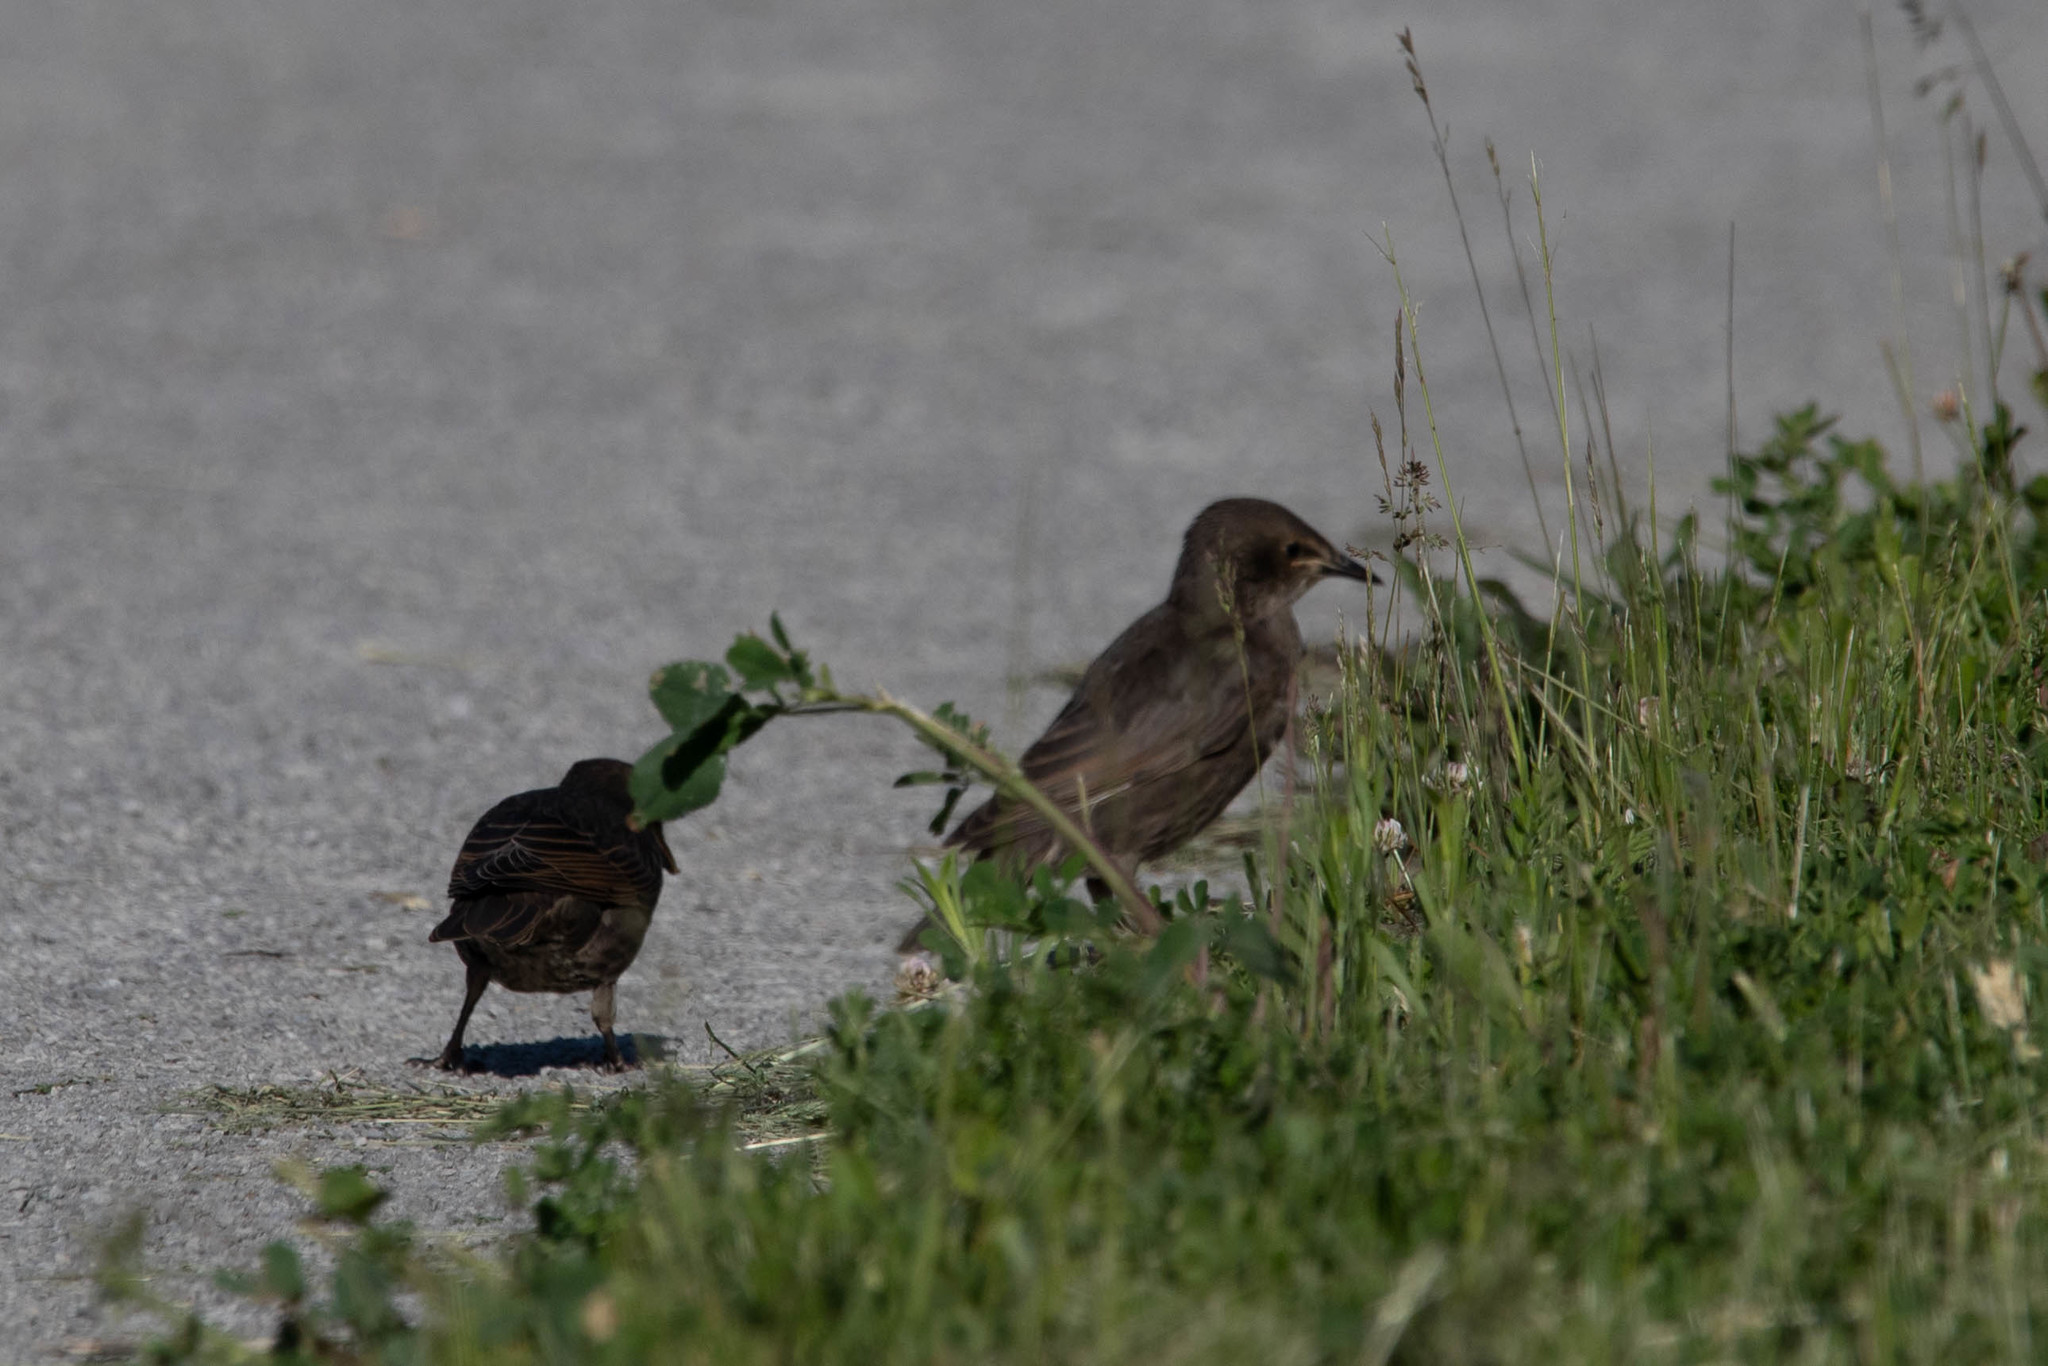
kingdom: Animalia
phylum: Chordata
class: Aves
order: Passeriformes
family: Sturnidae
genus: Sturnus
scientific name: Sturnus vulgaris
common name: Common starling
